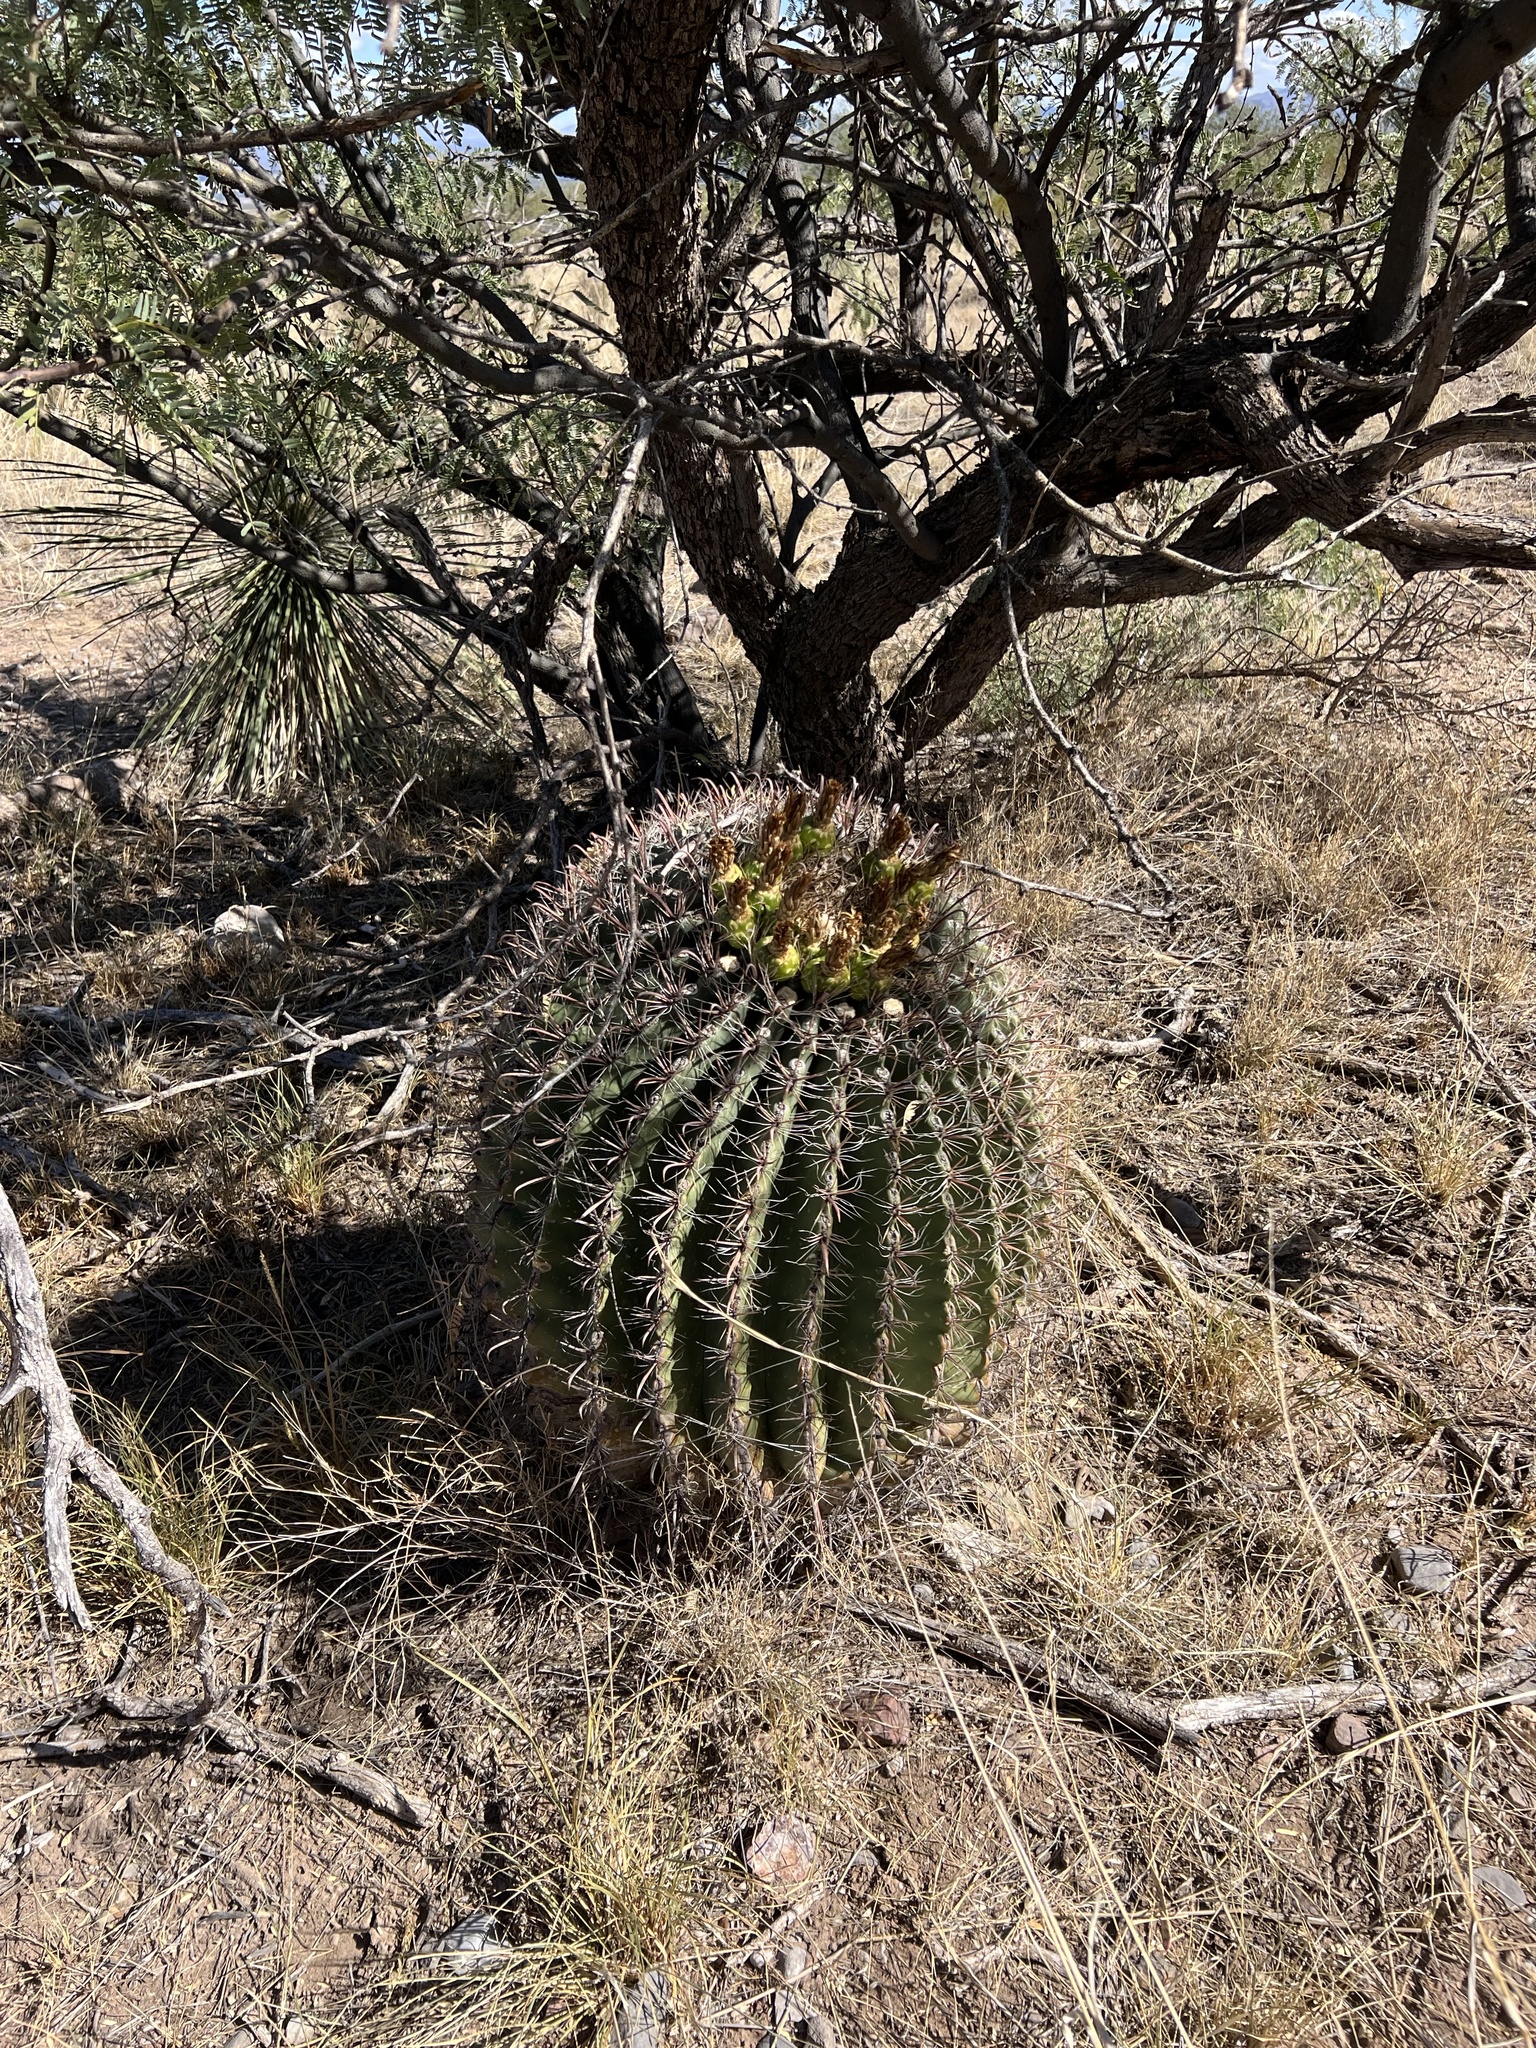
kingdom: Plantae
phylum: Tracheophyta
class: Magnoliopsida
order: Caryophyllales
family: Cactaceae
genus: Ferocactus
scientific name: Ferocactus wislizeni
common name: Candy barrel cactus
